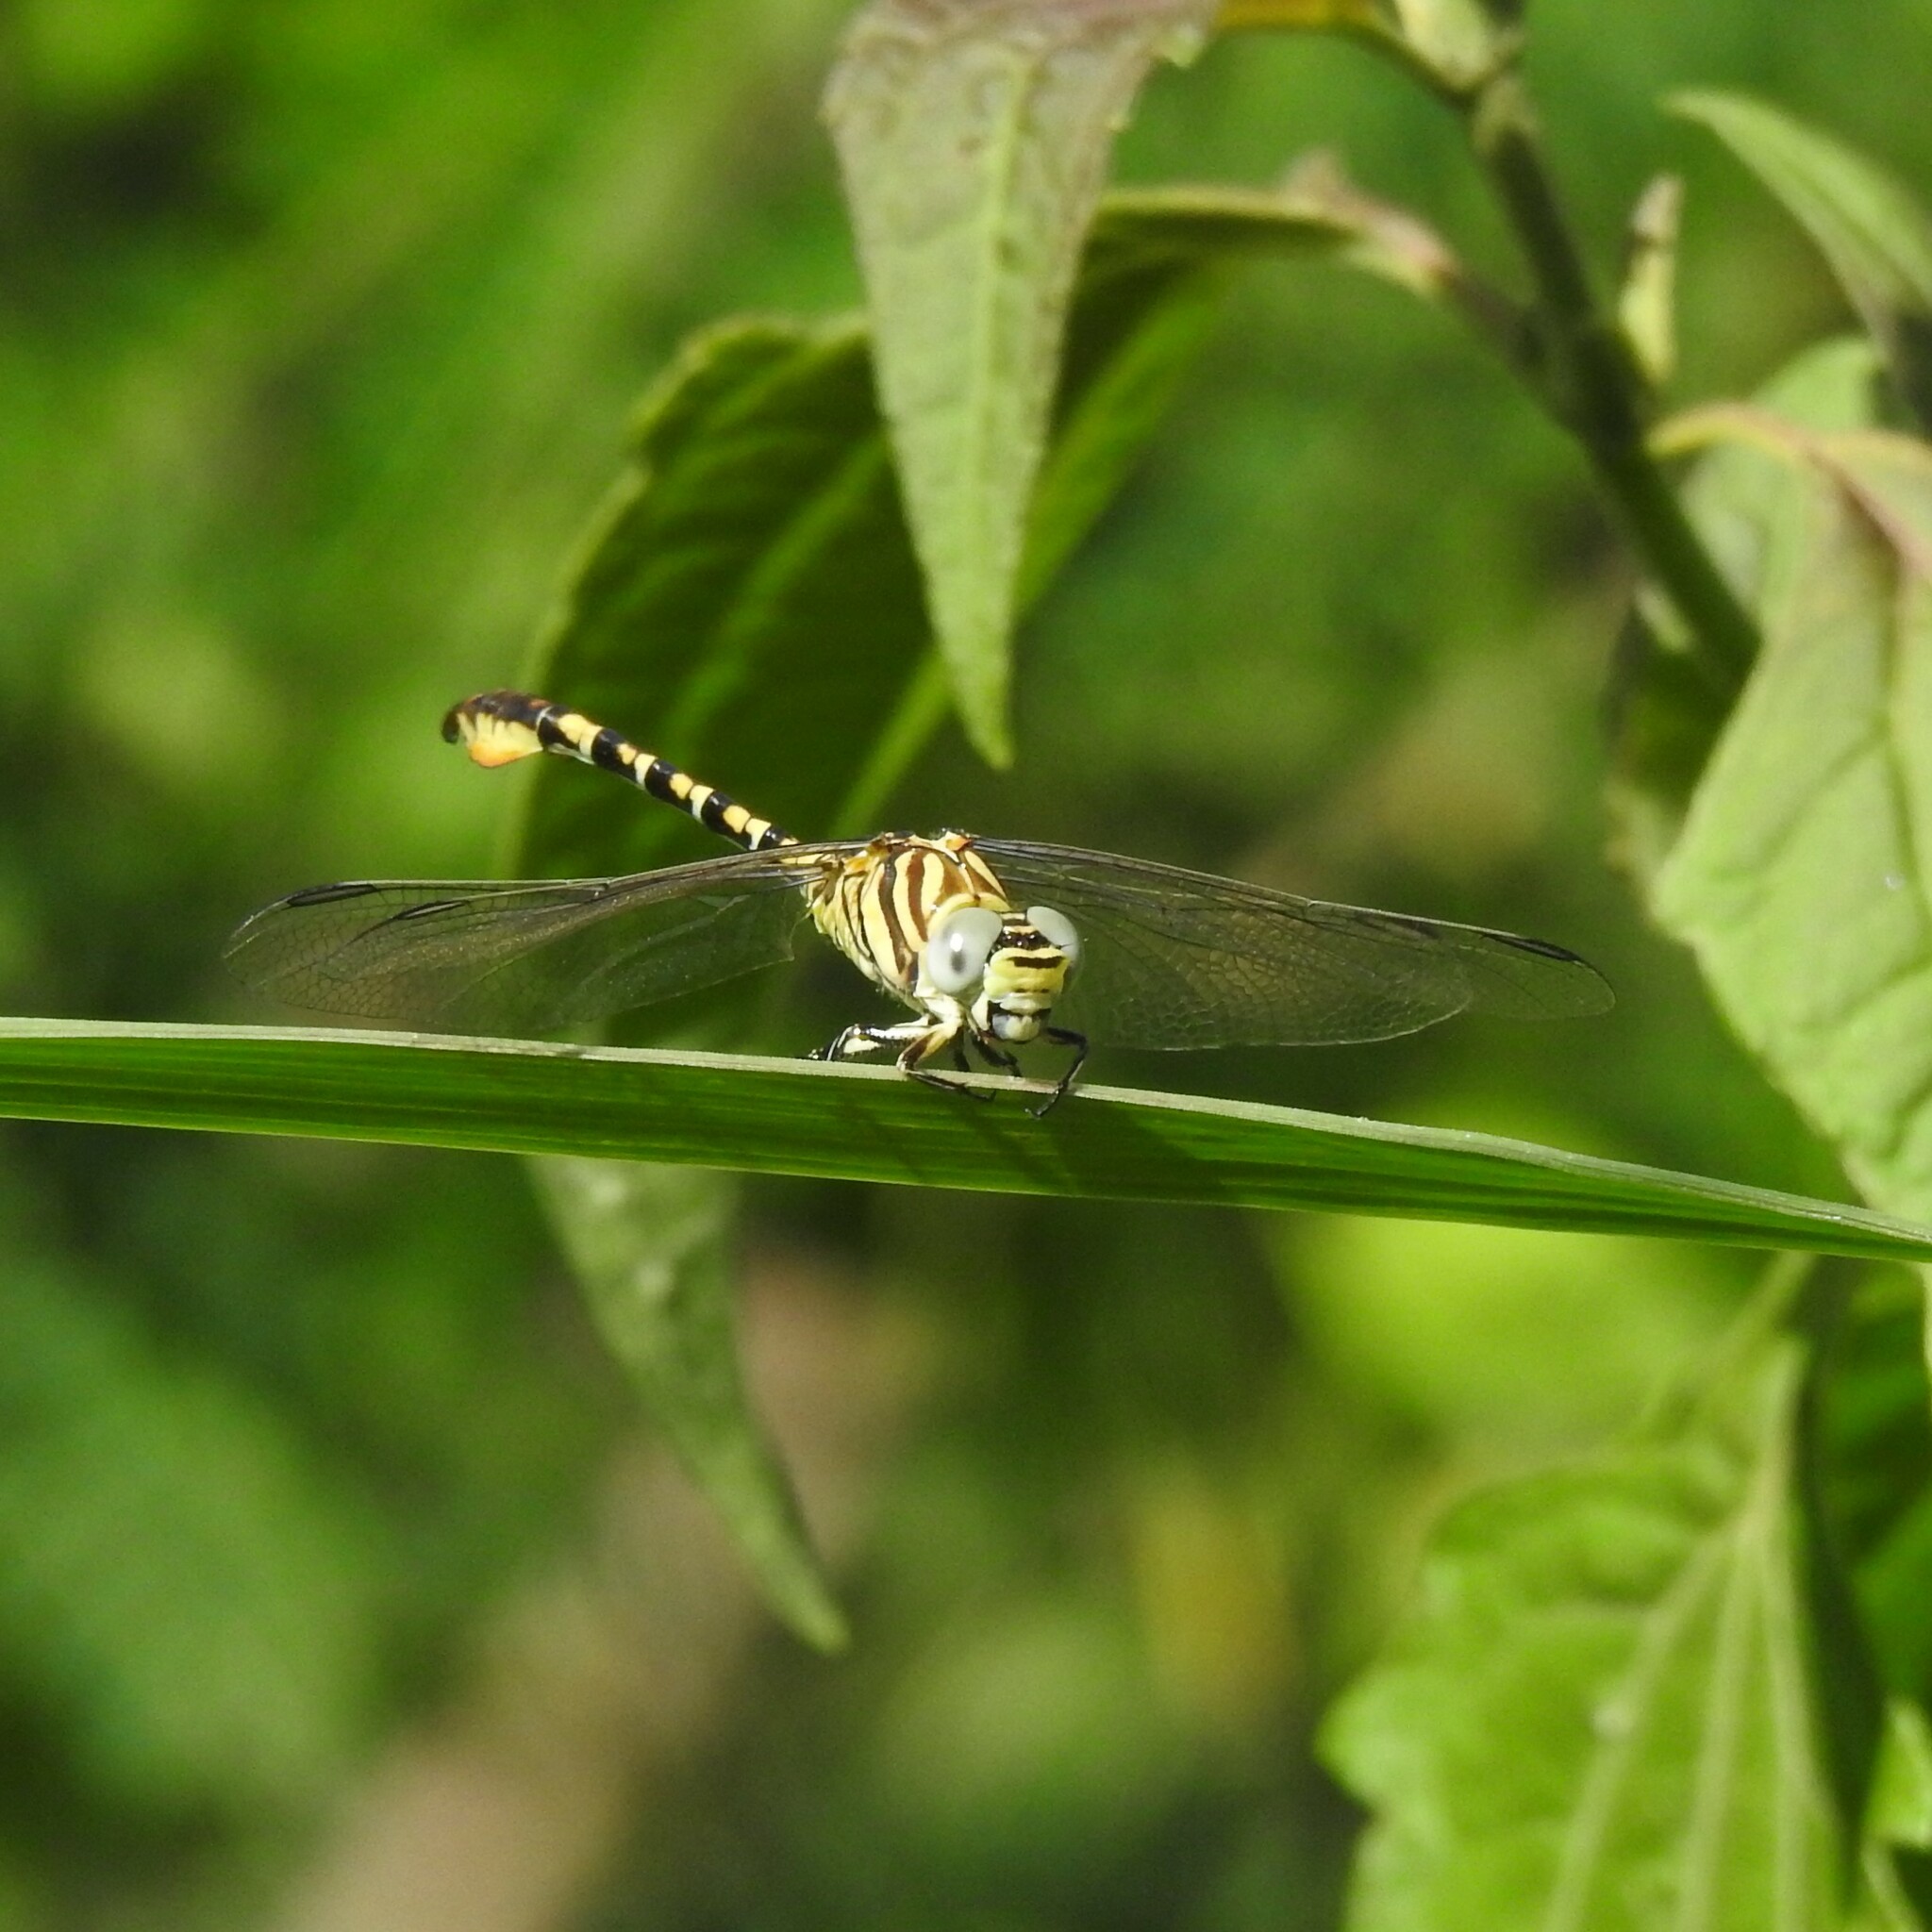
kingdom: Animalia
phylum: Arthropoda
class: Insecta
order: Odonata
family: Gomphidae
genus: Paragomphus
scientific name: Paragomphus lineatus
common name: Lined hooktail
